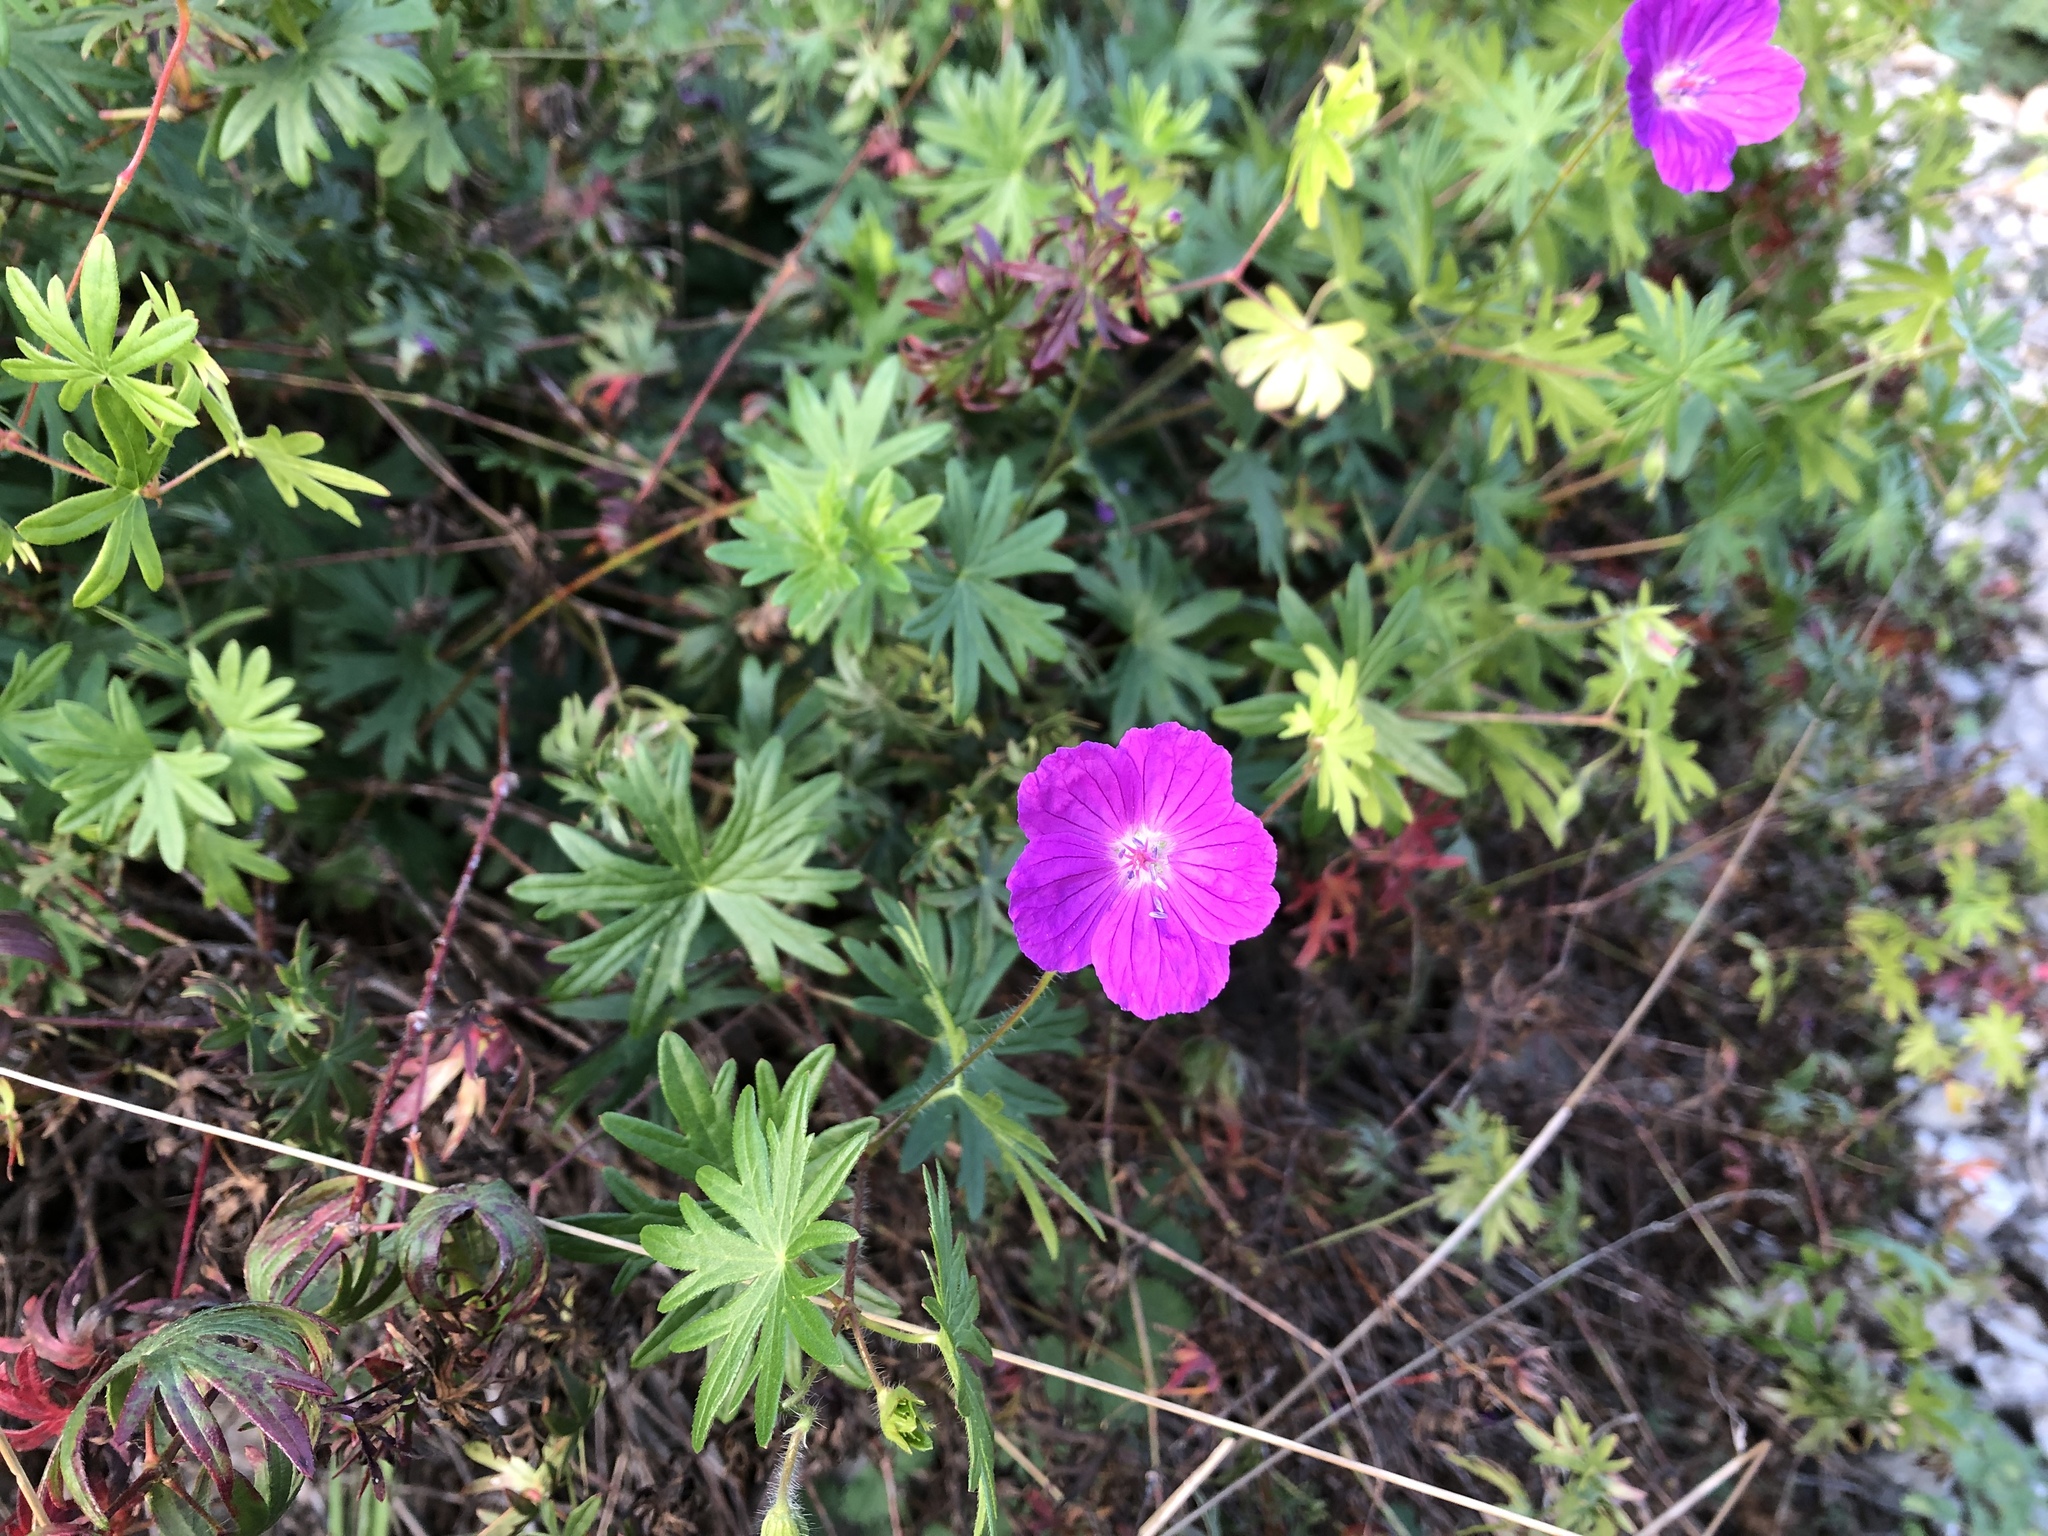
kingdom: Plantae
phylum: Tracheophyta
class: Magnoliopsida
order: Geraniales
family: Geraniaceae
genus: Geranium
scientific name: Geranium sanguineum
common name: Bloody crane's-bill
